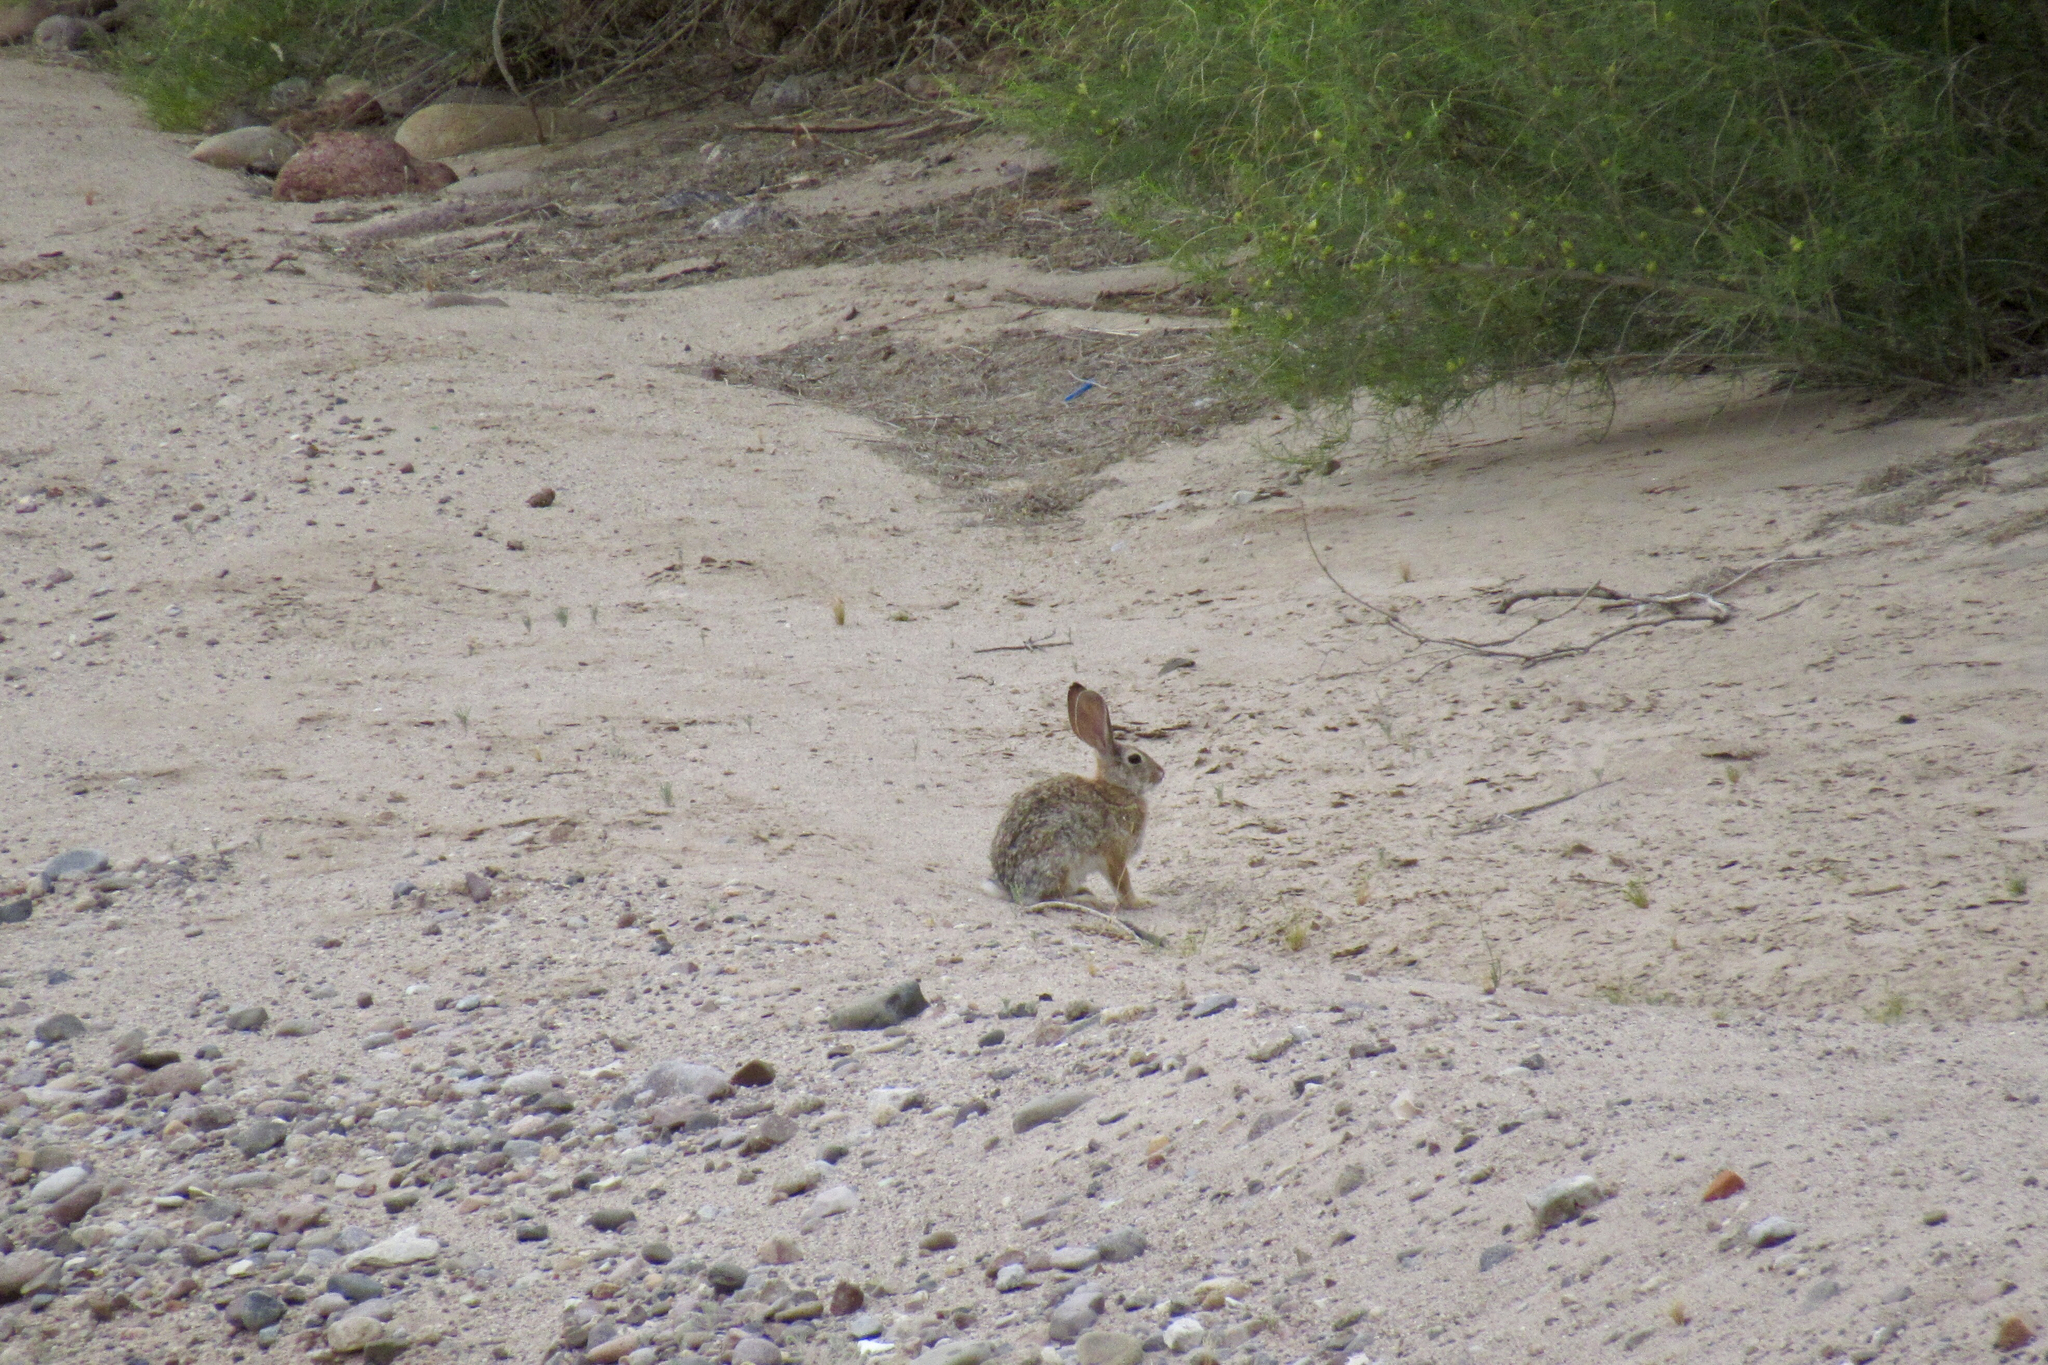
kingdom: Animalia
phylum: Chordata
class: Mammalia
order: Lagomorpha
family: Leporidae
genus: Sylvilagus
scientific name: Sylvilagus audubonii
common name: Desert cottontail
